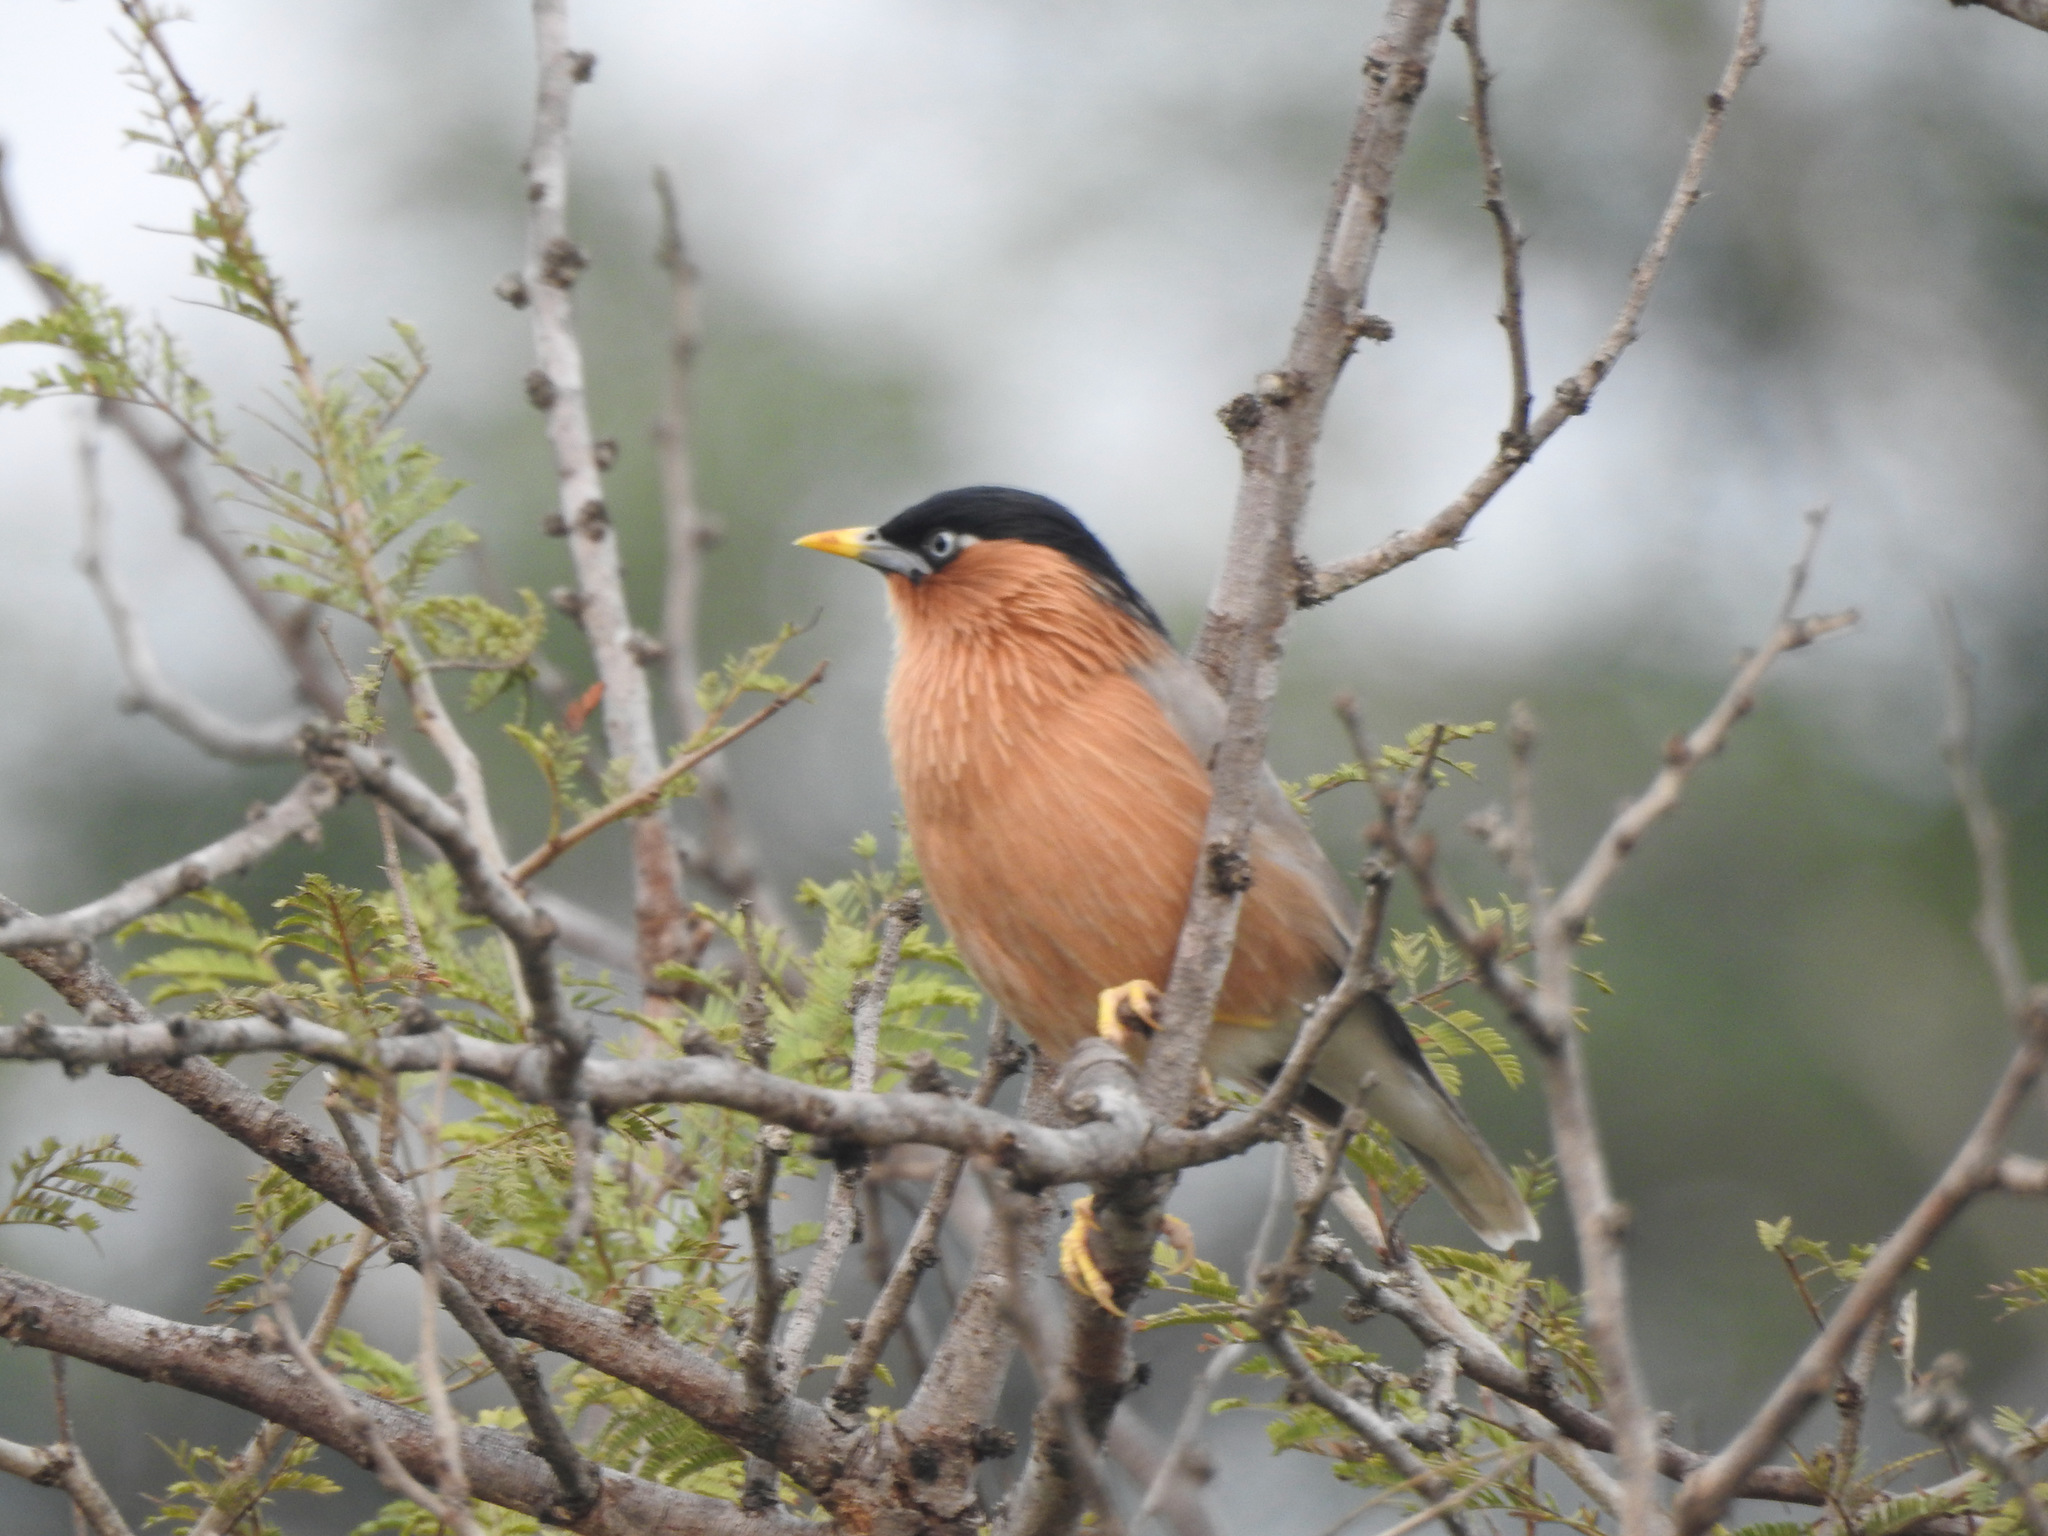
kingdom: Animalia
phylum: Chordata
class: Aves
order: Passeriformes
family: Sturnidae
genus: Sturnia
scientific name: Sturnia pagodarum
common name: Brahminy starling
